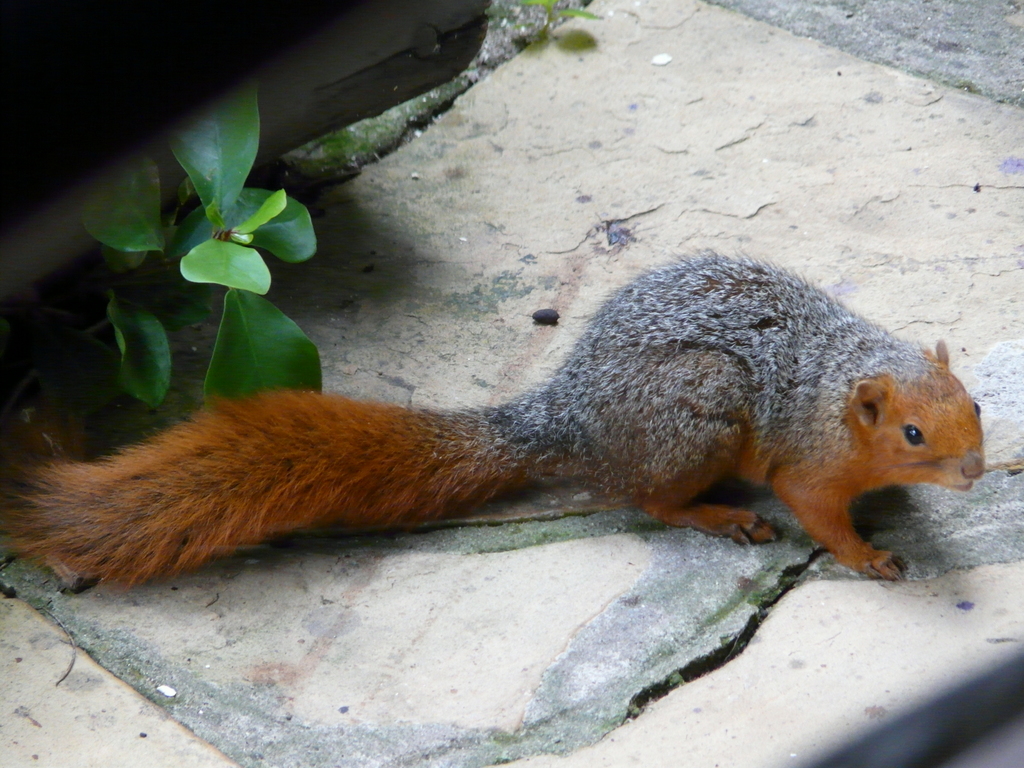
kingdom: Animalia
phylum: Chordata
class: Mammalia
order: Rodentia
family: Sciuridae
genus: Paraxerus
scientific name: Paraxerus palliatus
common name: Red bush squirrel
